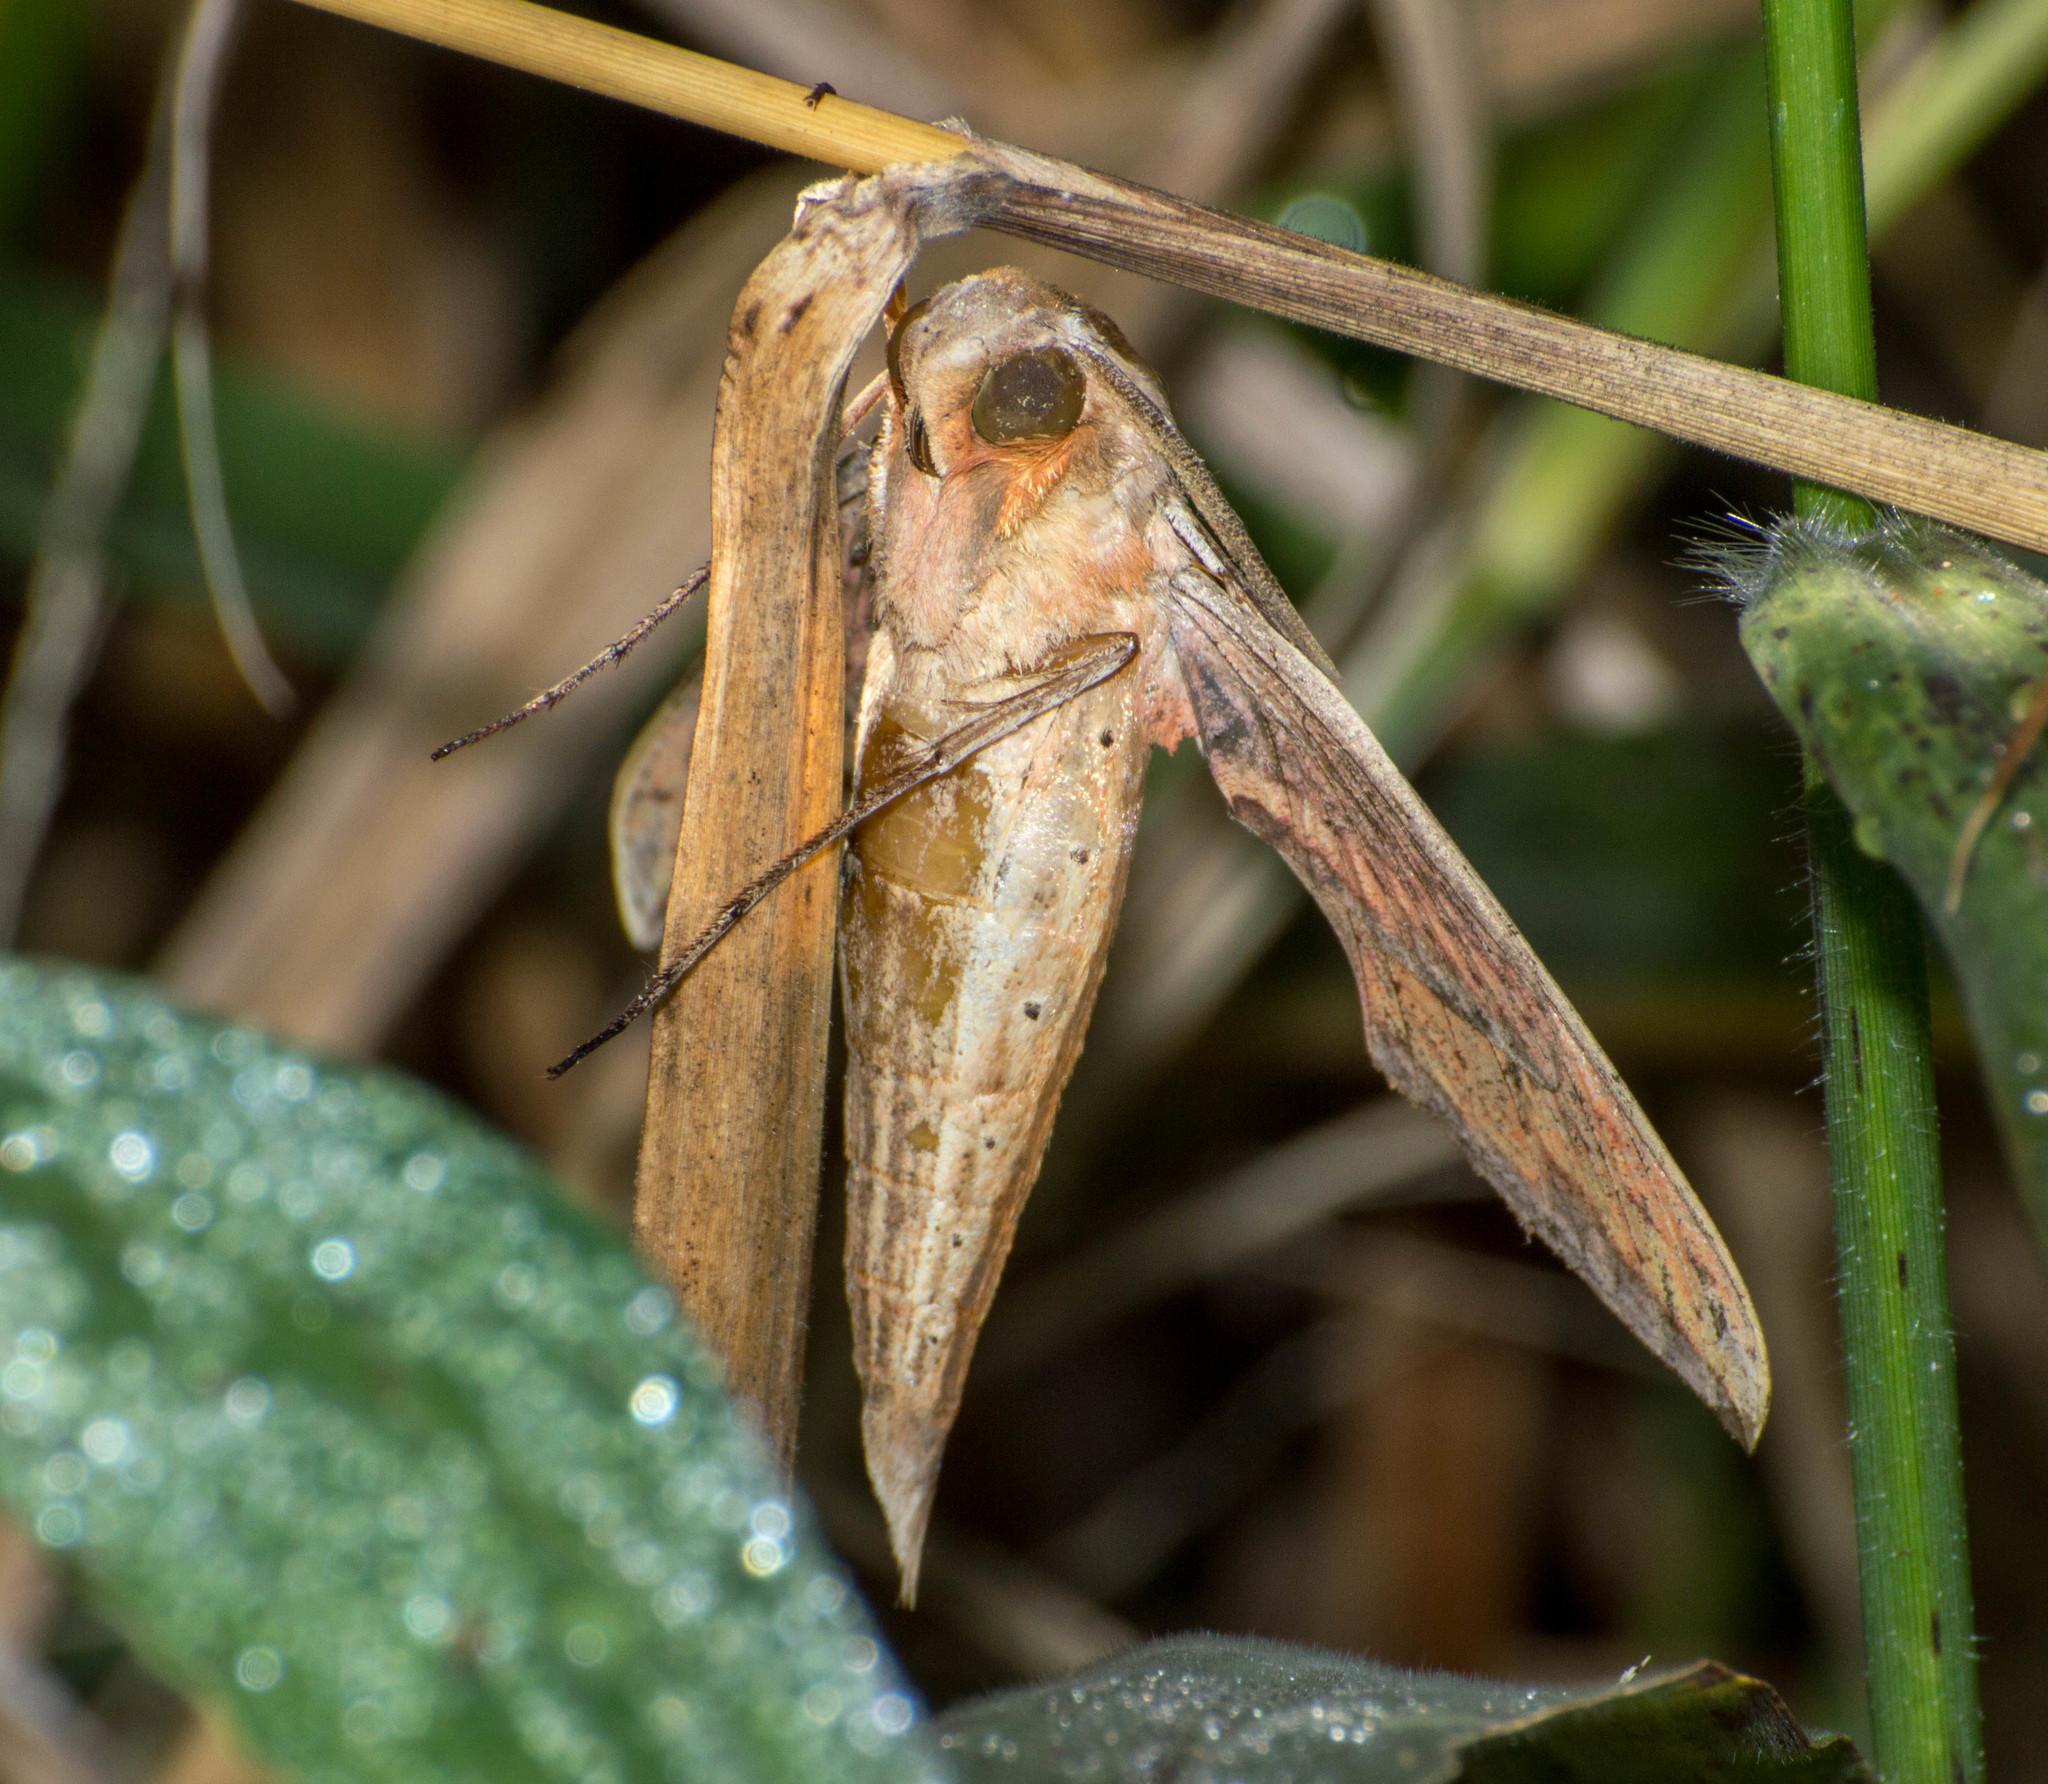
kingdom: Animalia
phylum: Arthropoda
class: Insecta
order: Lepidoptera
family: Sphingidae
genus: Xylophanes
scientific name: Xylophanes tersa
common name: Tersa sphinx
